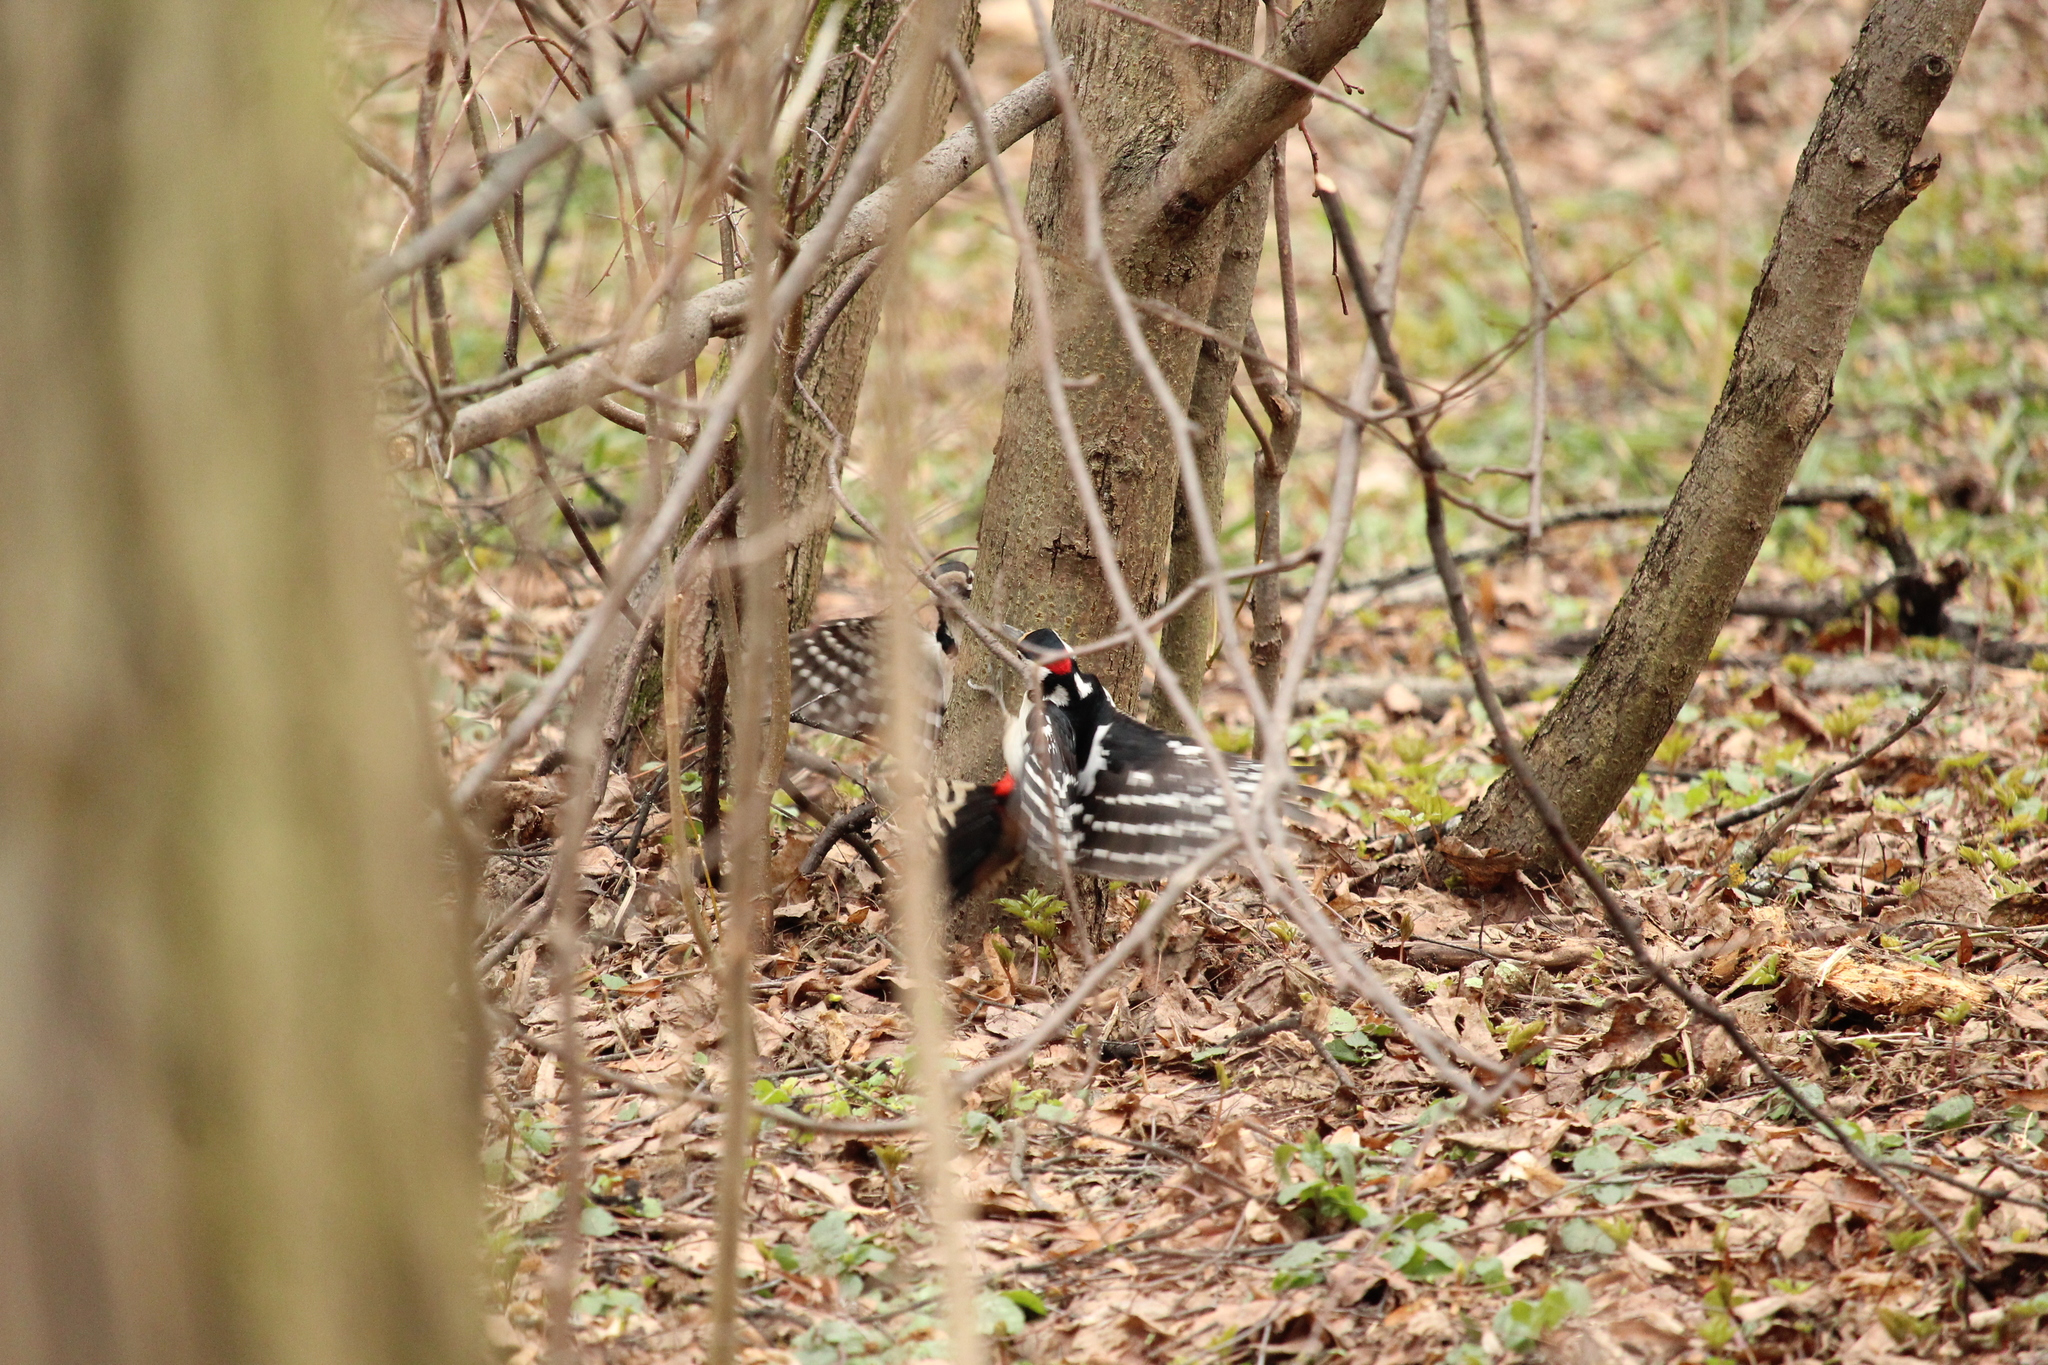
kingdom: Animalia
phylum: Chordata
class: Aves
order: Piciformes
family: Picidae
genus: Dendrocopos
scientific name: Dendrocopos major
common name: Great spotted woodpecker
